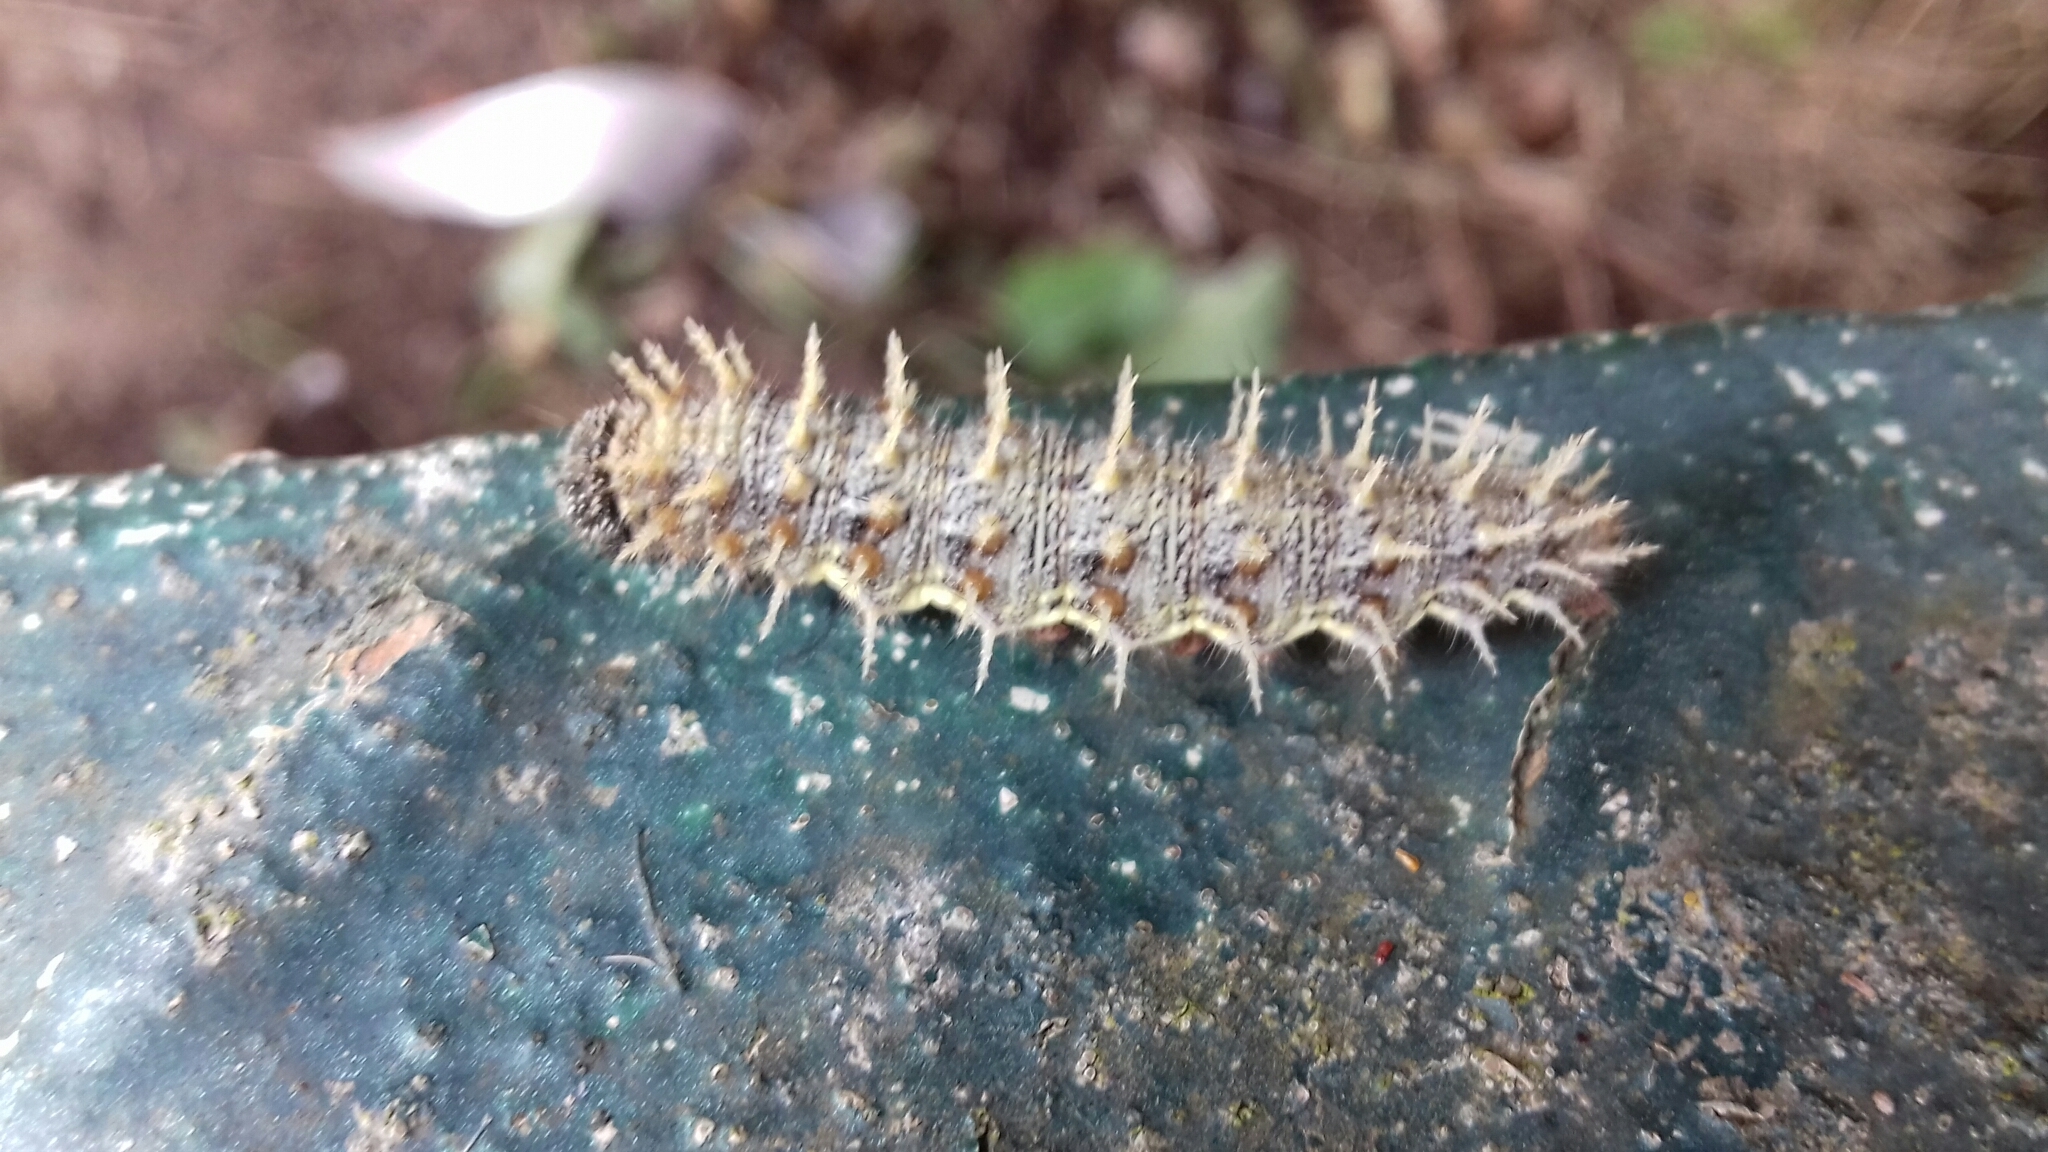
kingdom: Animalia
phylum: Arthropoda
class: Insecta
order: Lepidoptera
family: Nymphalidae
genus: Vanessa
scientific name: Vanessa atalanta
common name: Red admiral
